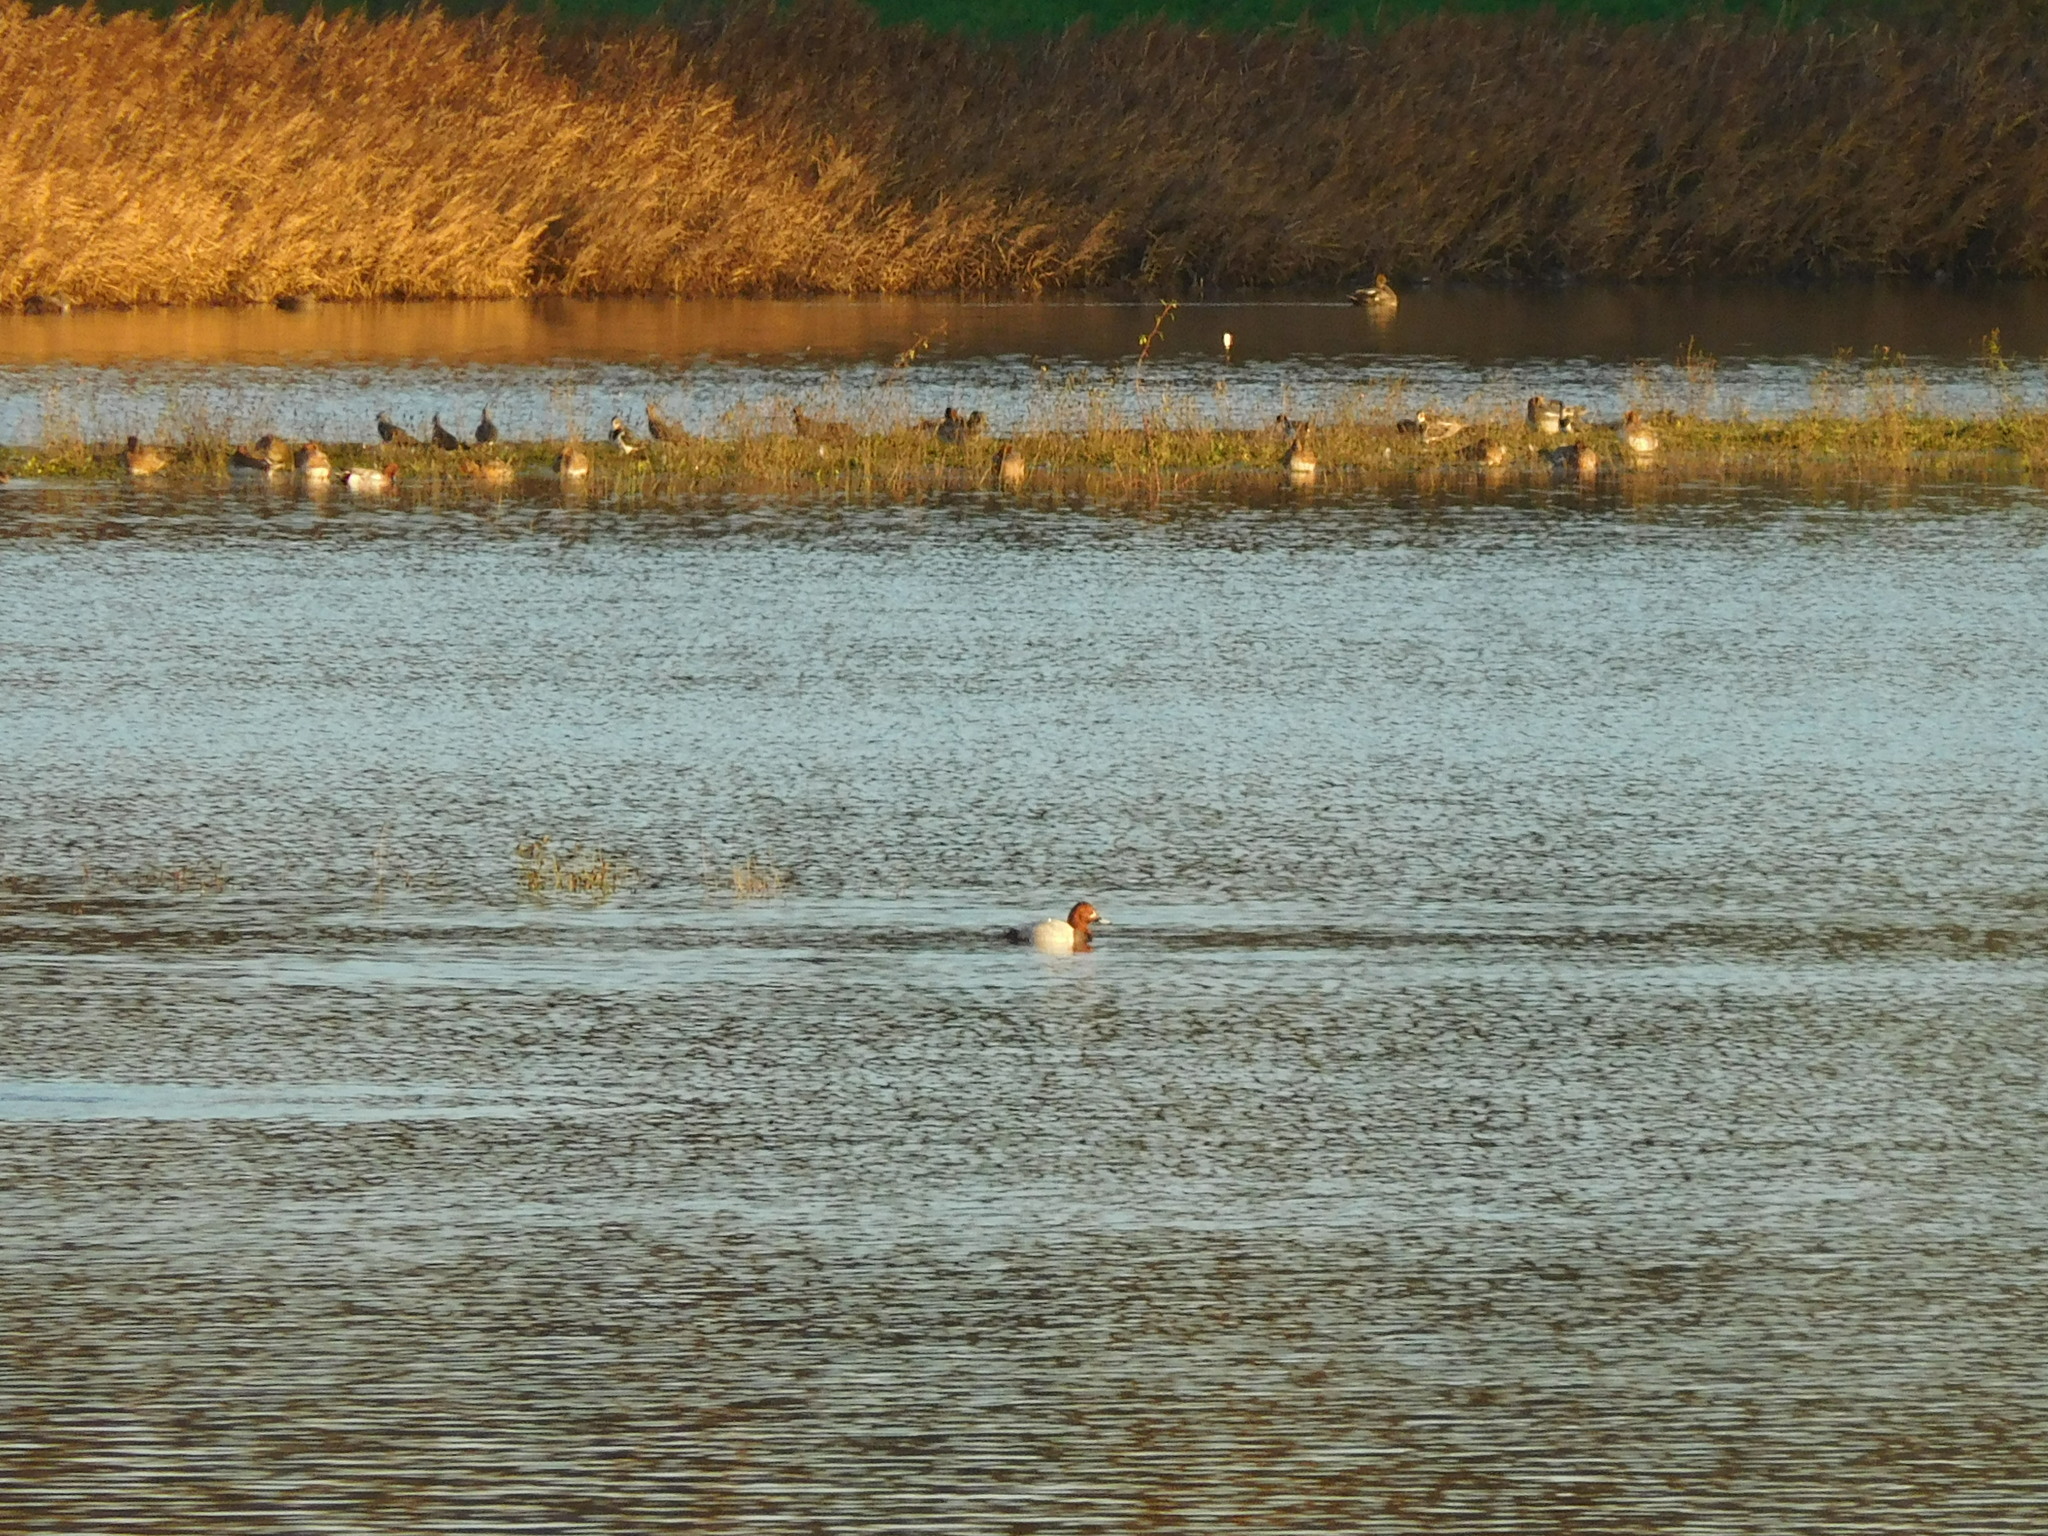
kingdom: Animalia
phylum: Chordata
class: Aves
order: Anseriformes
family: Anatidae
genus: Aythya
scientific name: Aythya ferina
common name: Common pochard
